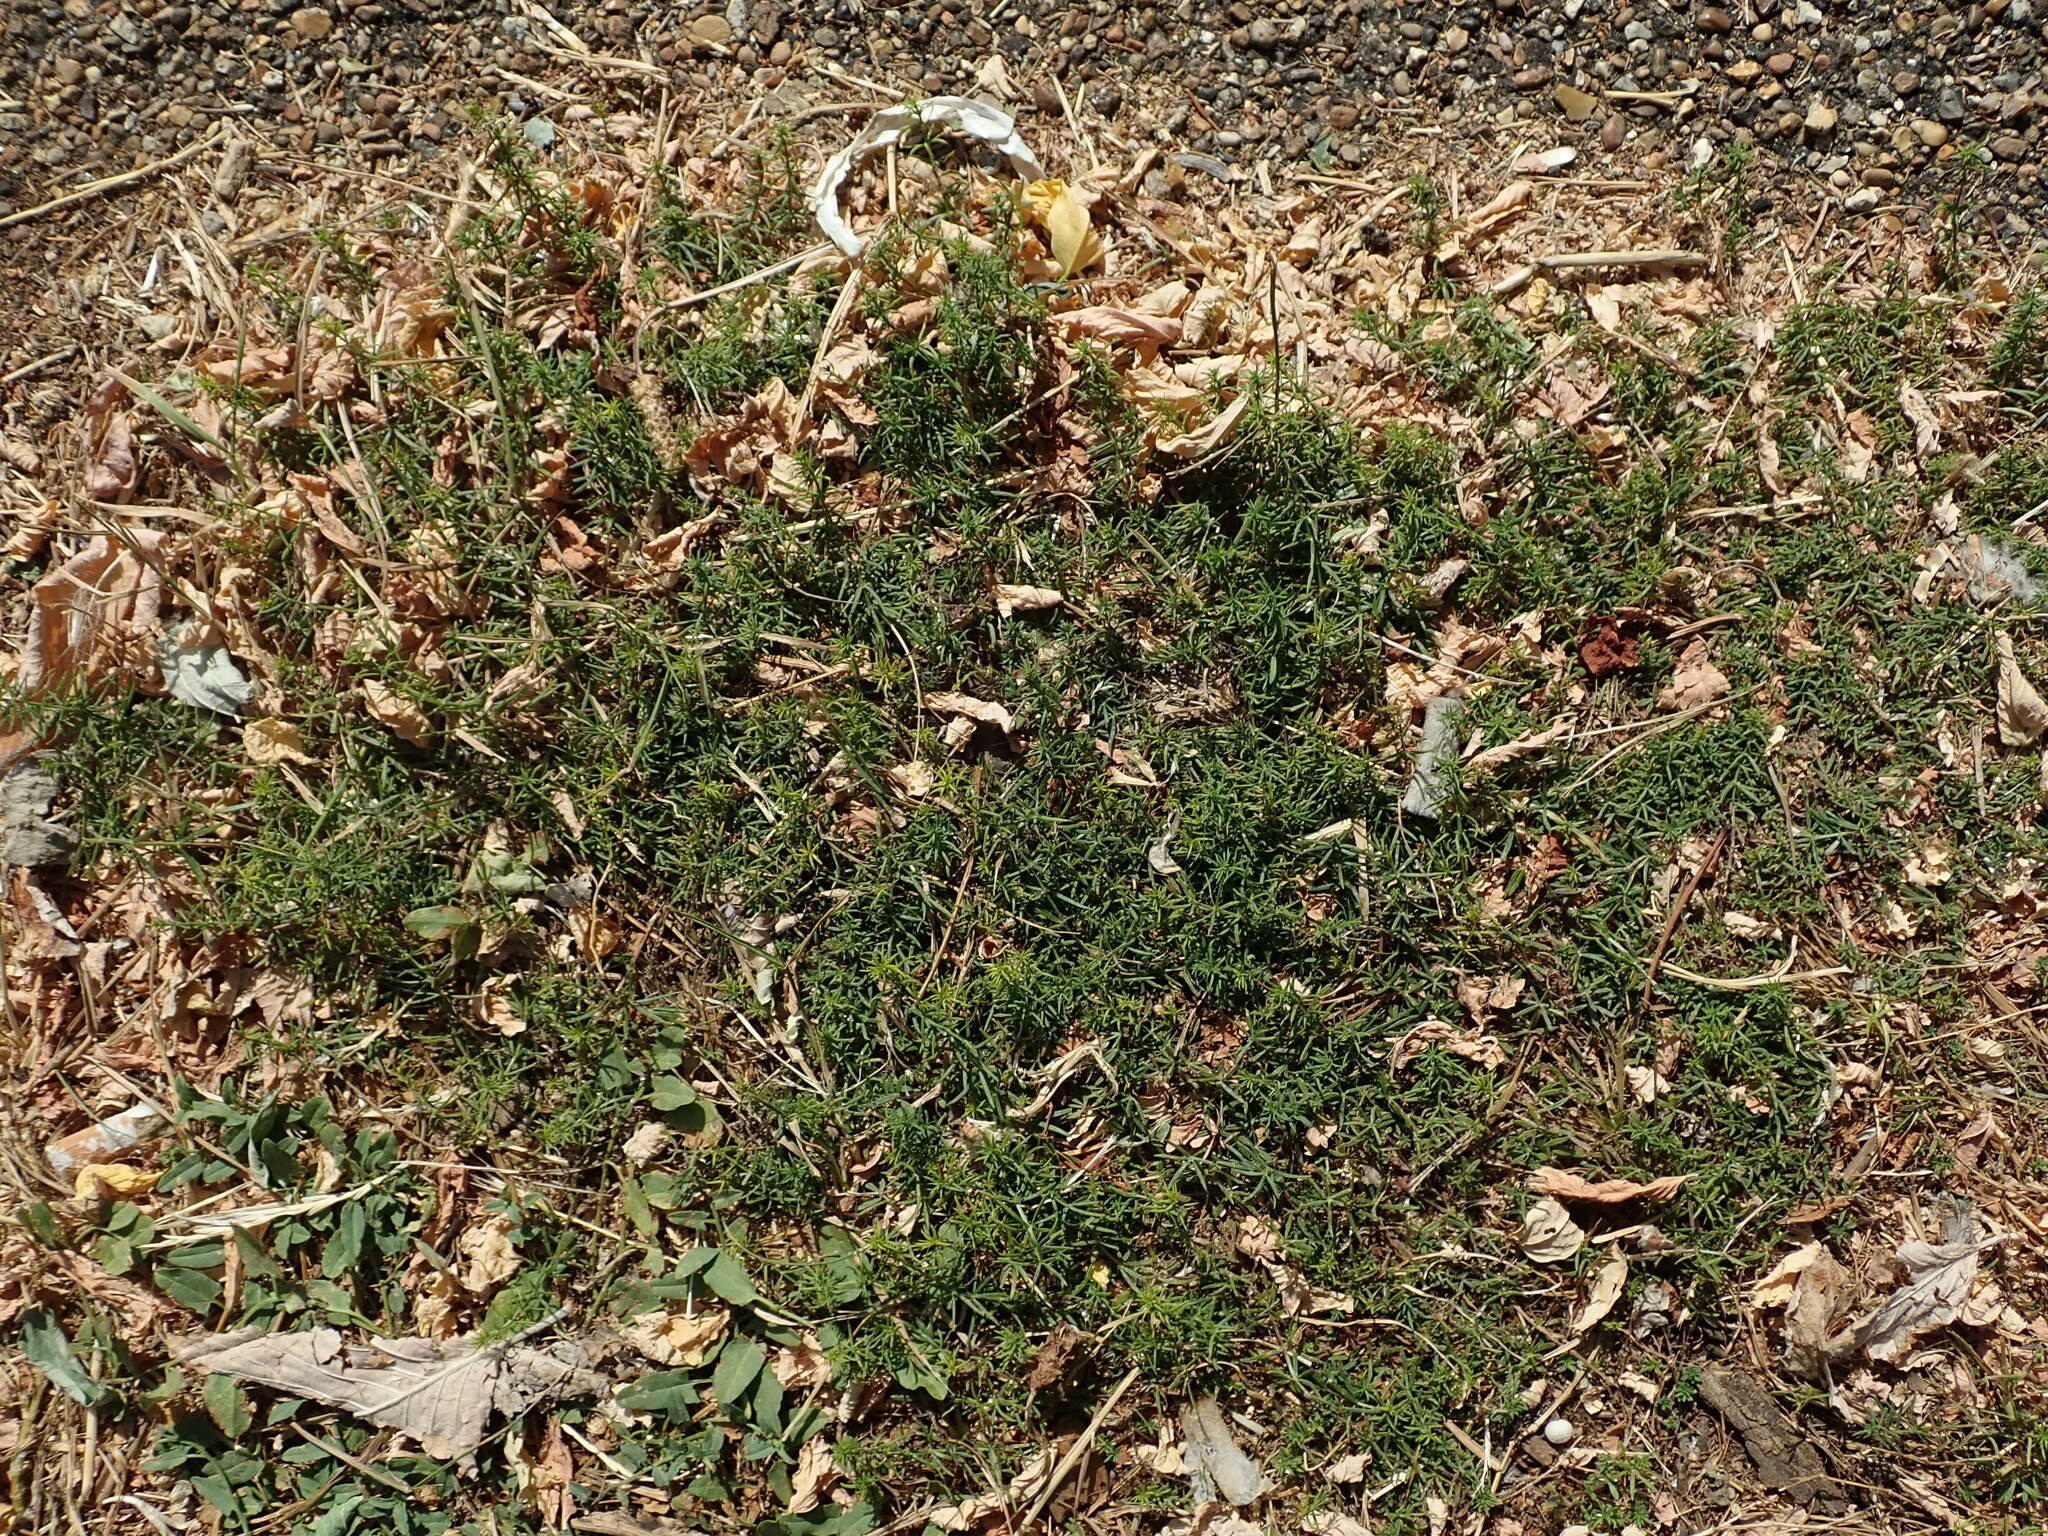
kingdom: Plantae
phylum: Tracheophyta
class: Magnoliopsida
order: Gentianales
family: Rubiaceae
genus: Galium
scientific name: Galium verum
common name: Lady's bedstraw
